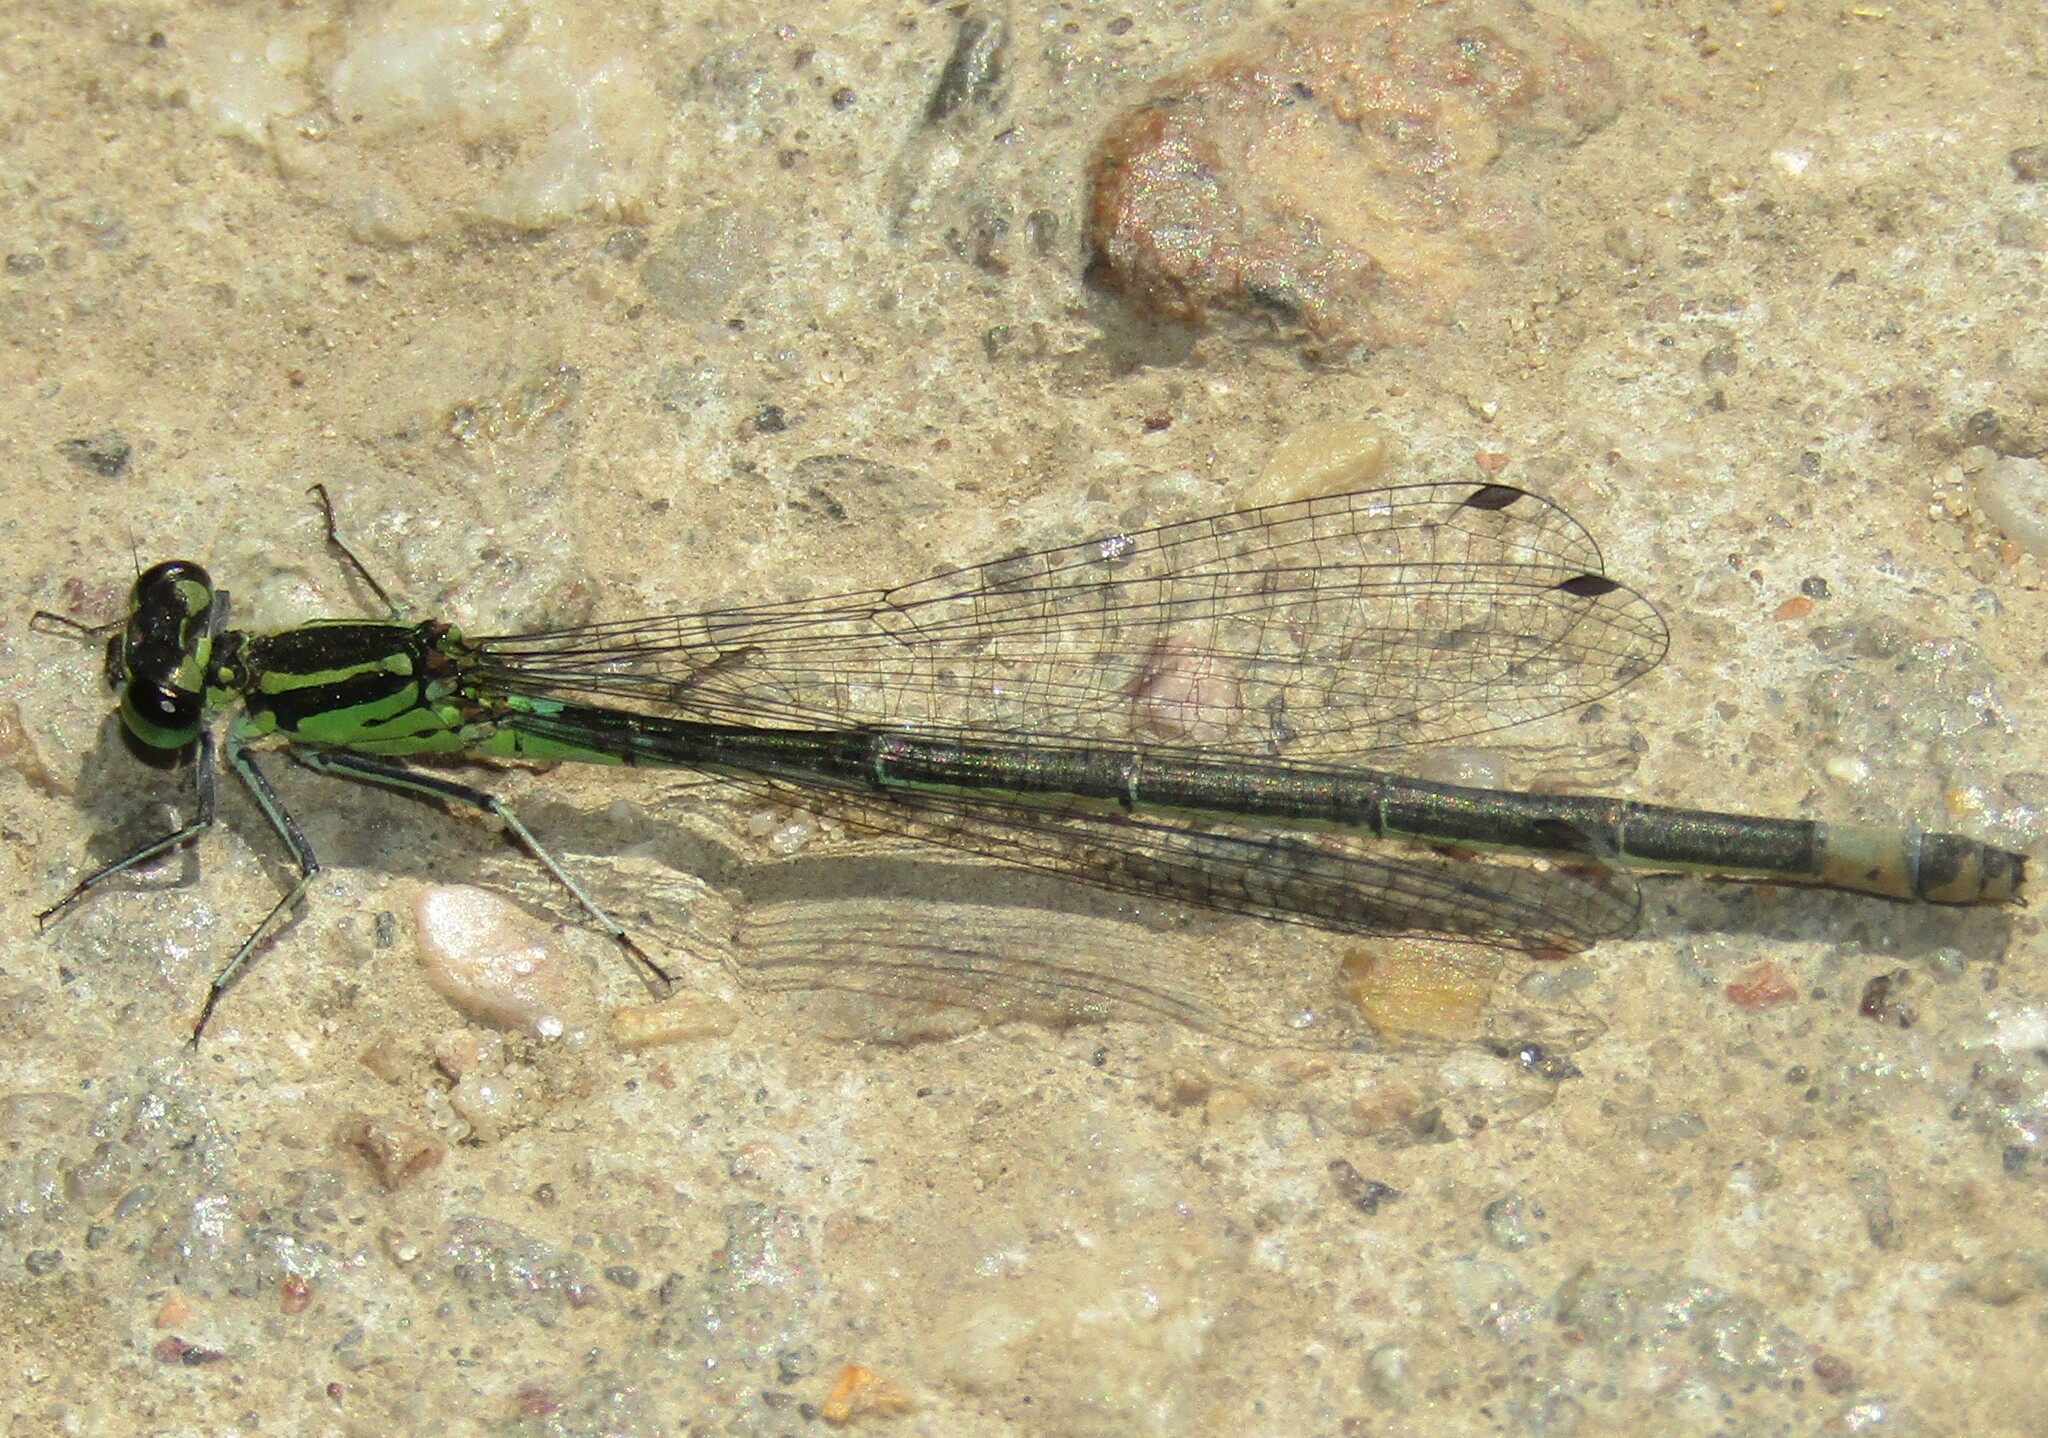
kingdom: Animalia
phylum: Arthropoda
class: Insecta
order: Odonata
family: Coenagrionidae
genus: Coenagrion
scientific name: Coenagrion pulchellum
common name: Variable bluet
